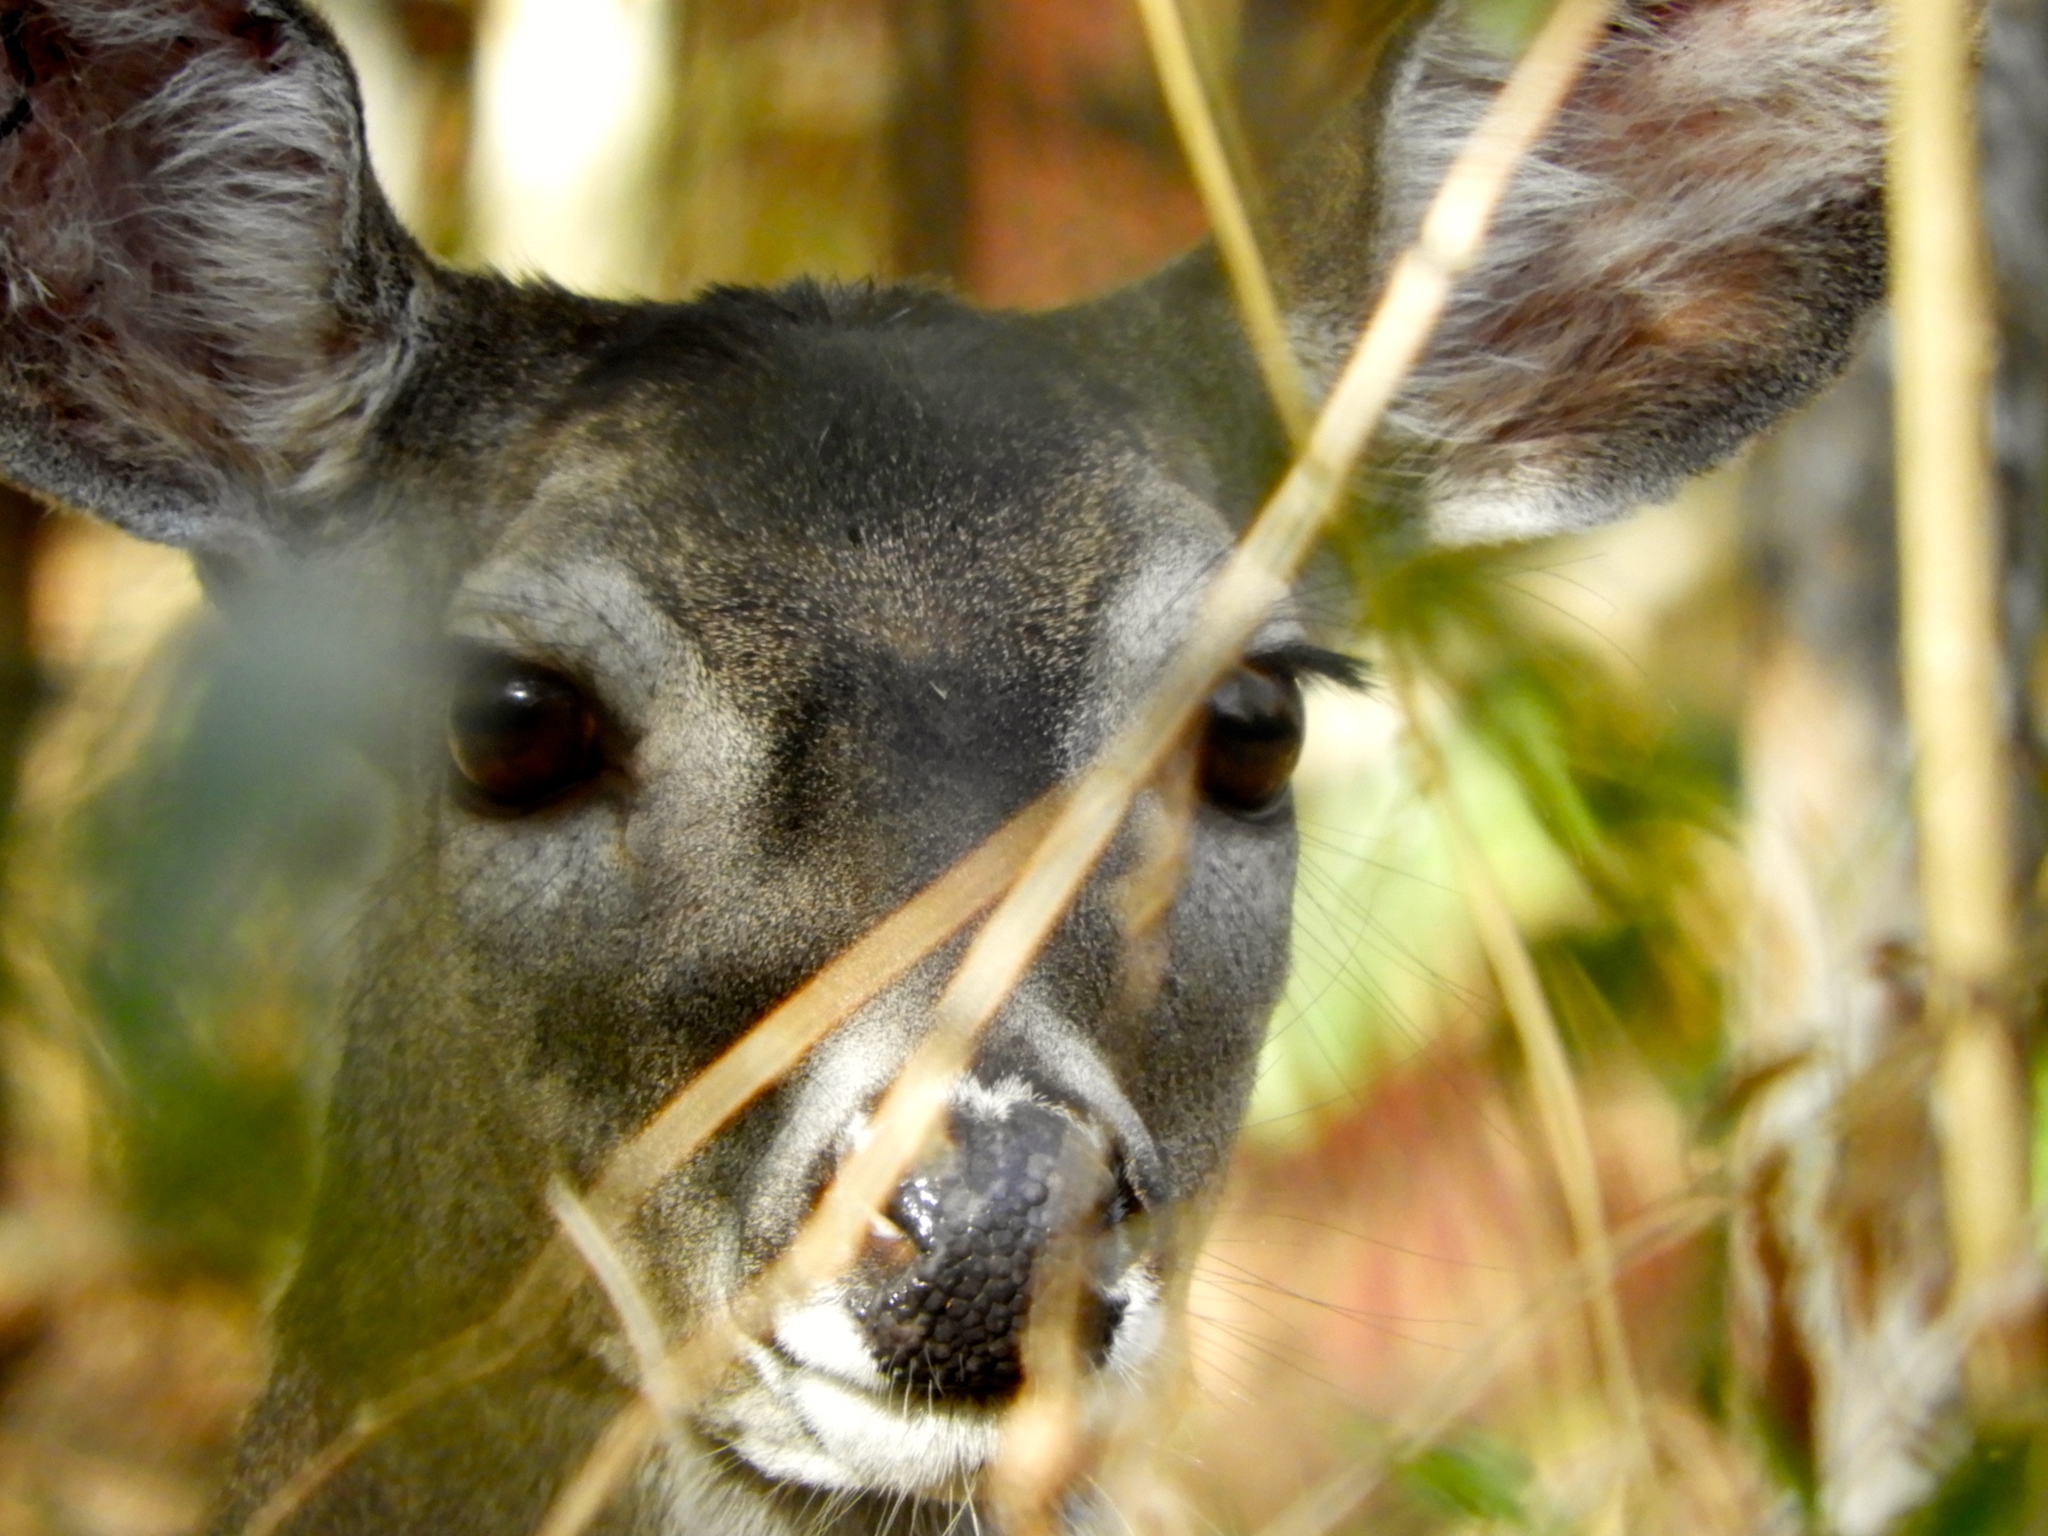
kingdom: Animalia
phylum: Chordata
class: Mammalia
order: Artiodactyla
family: Cervidae
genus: Odocoileus
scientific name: Odocoileus virginianus
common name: White-tailed deer
